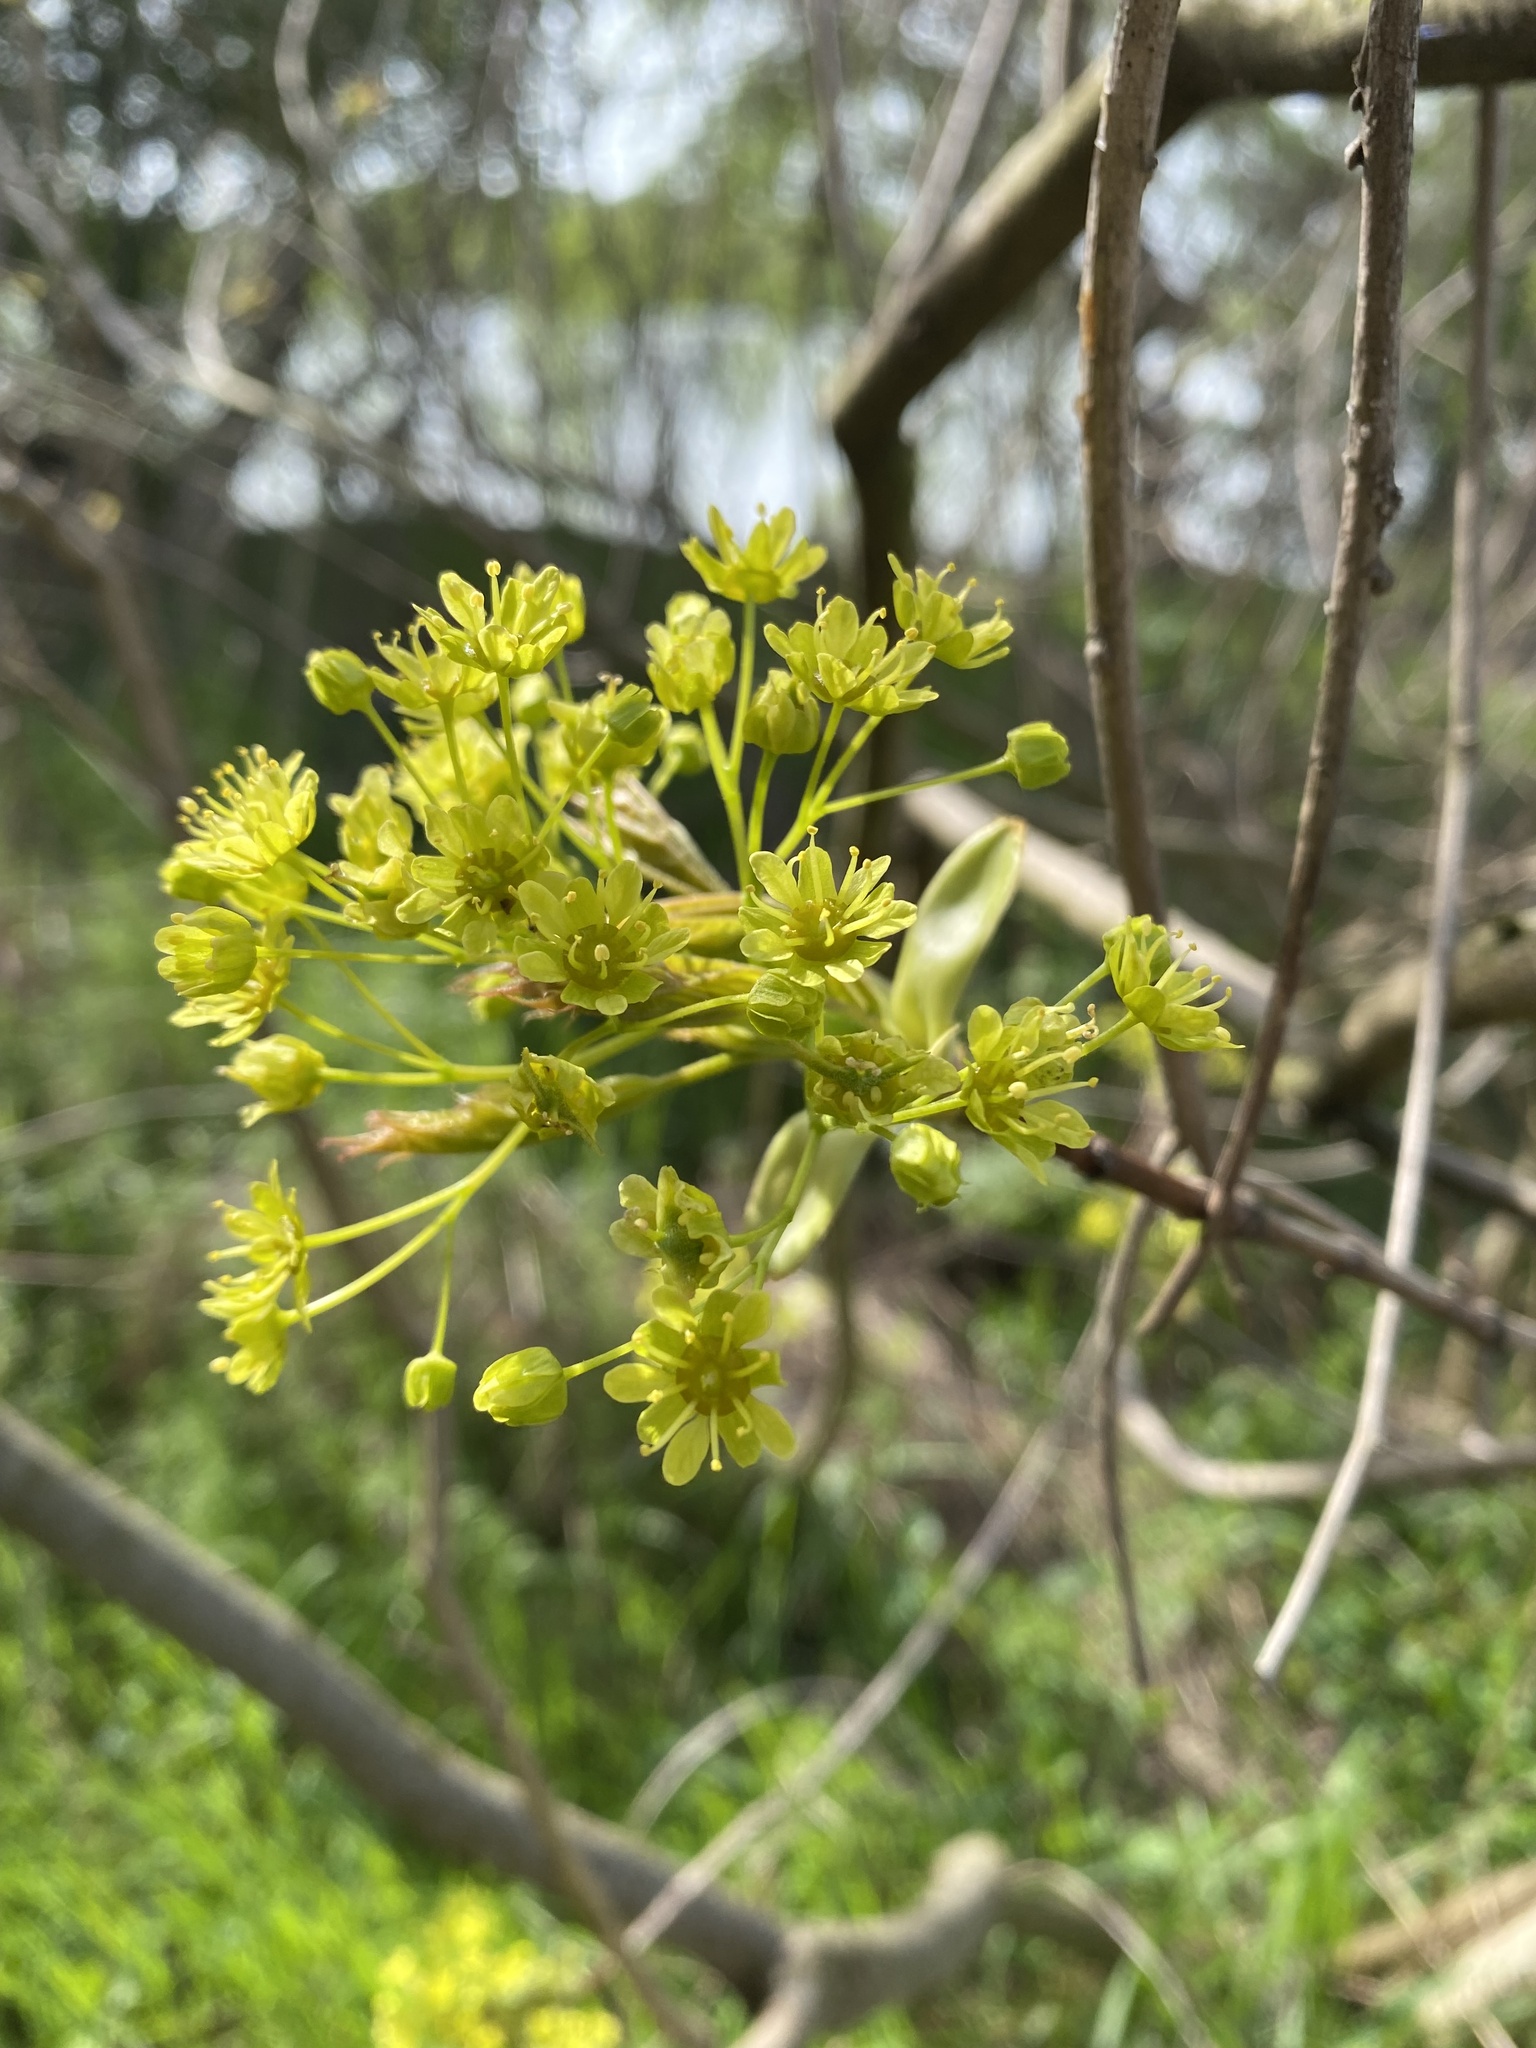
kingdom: Plantae
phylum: Tracheophyta
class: Magnoliopsida
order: Sapindales
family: Sapindaceae
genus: Acer
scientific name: Acer platanoides
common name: Norway maple
